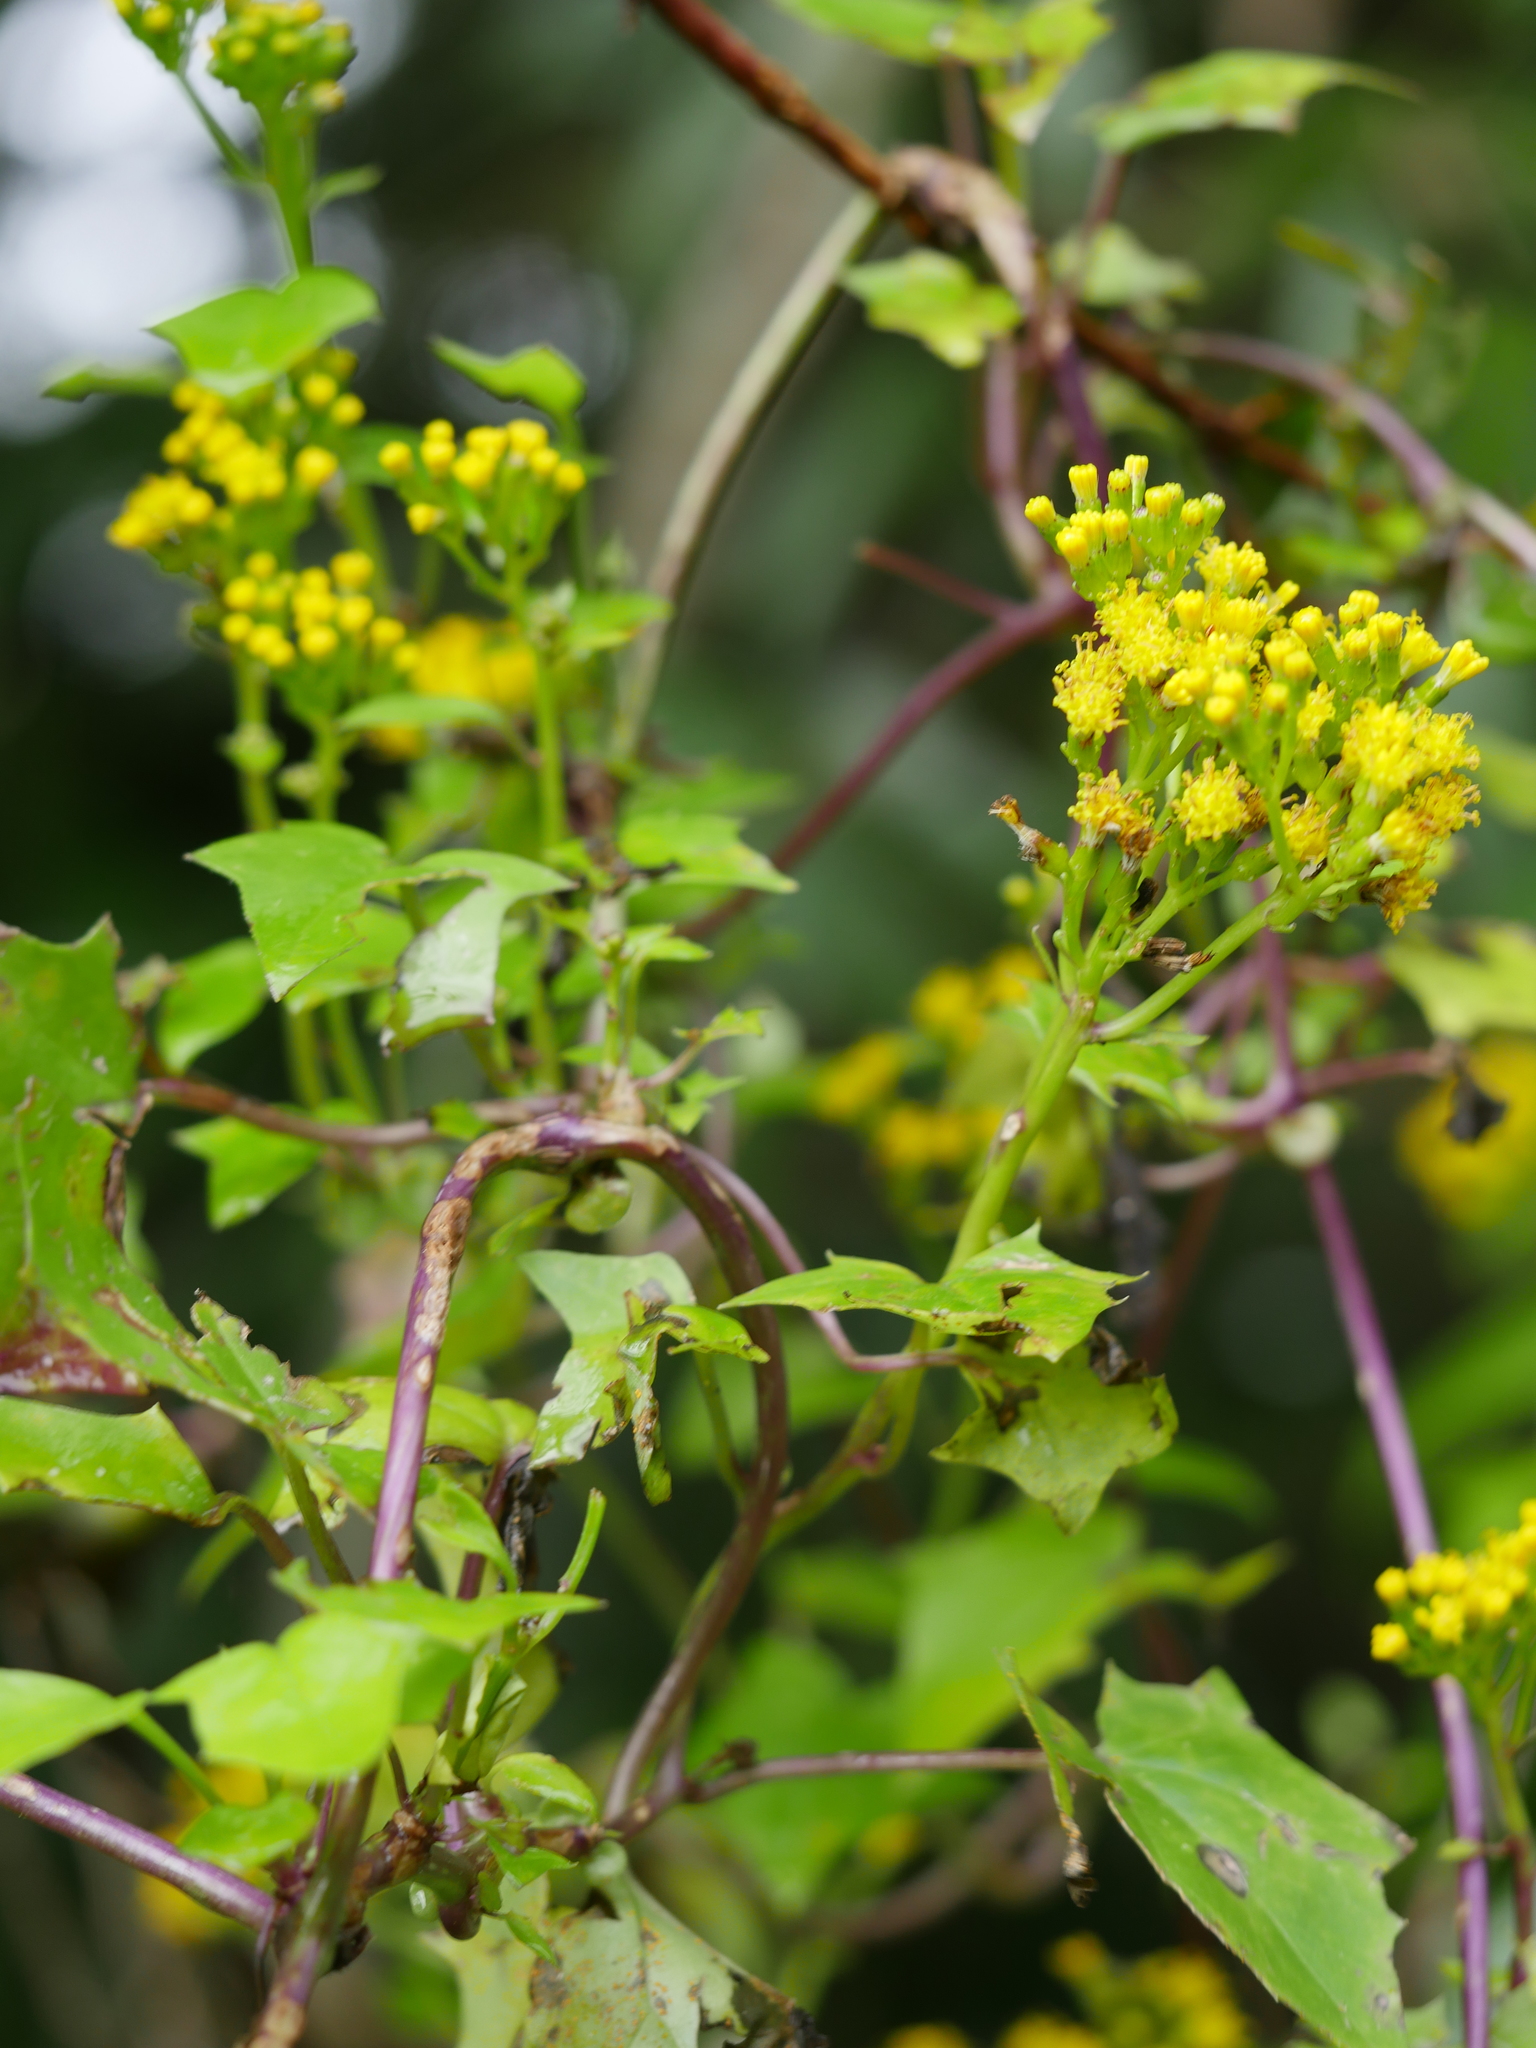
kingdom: Plantae
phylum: Tracheophyta
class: Magnoliopsida
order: Asterales
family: Asteraceae
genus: Delairea
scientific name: Delairea odorata
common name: Cape-ivy
